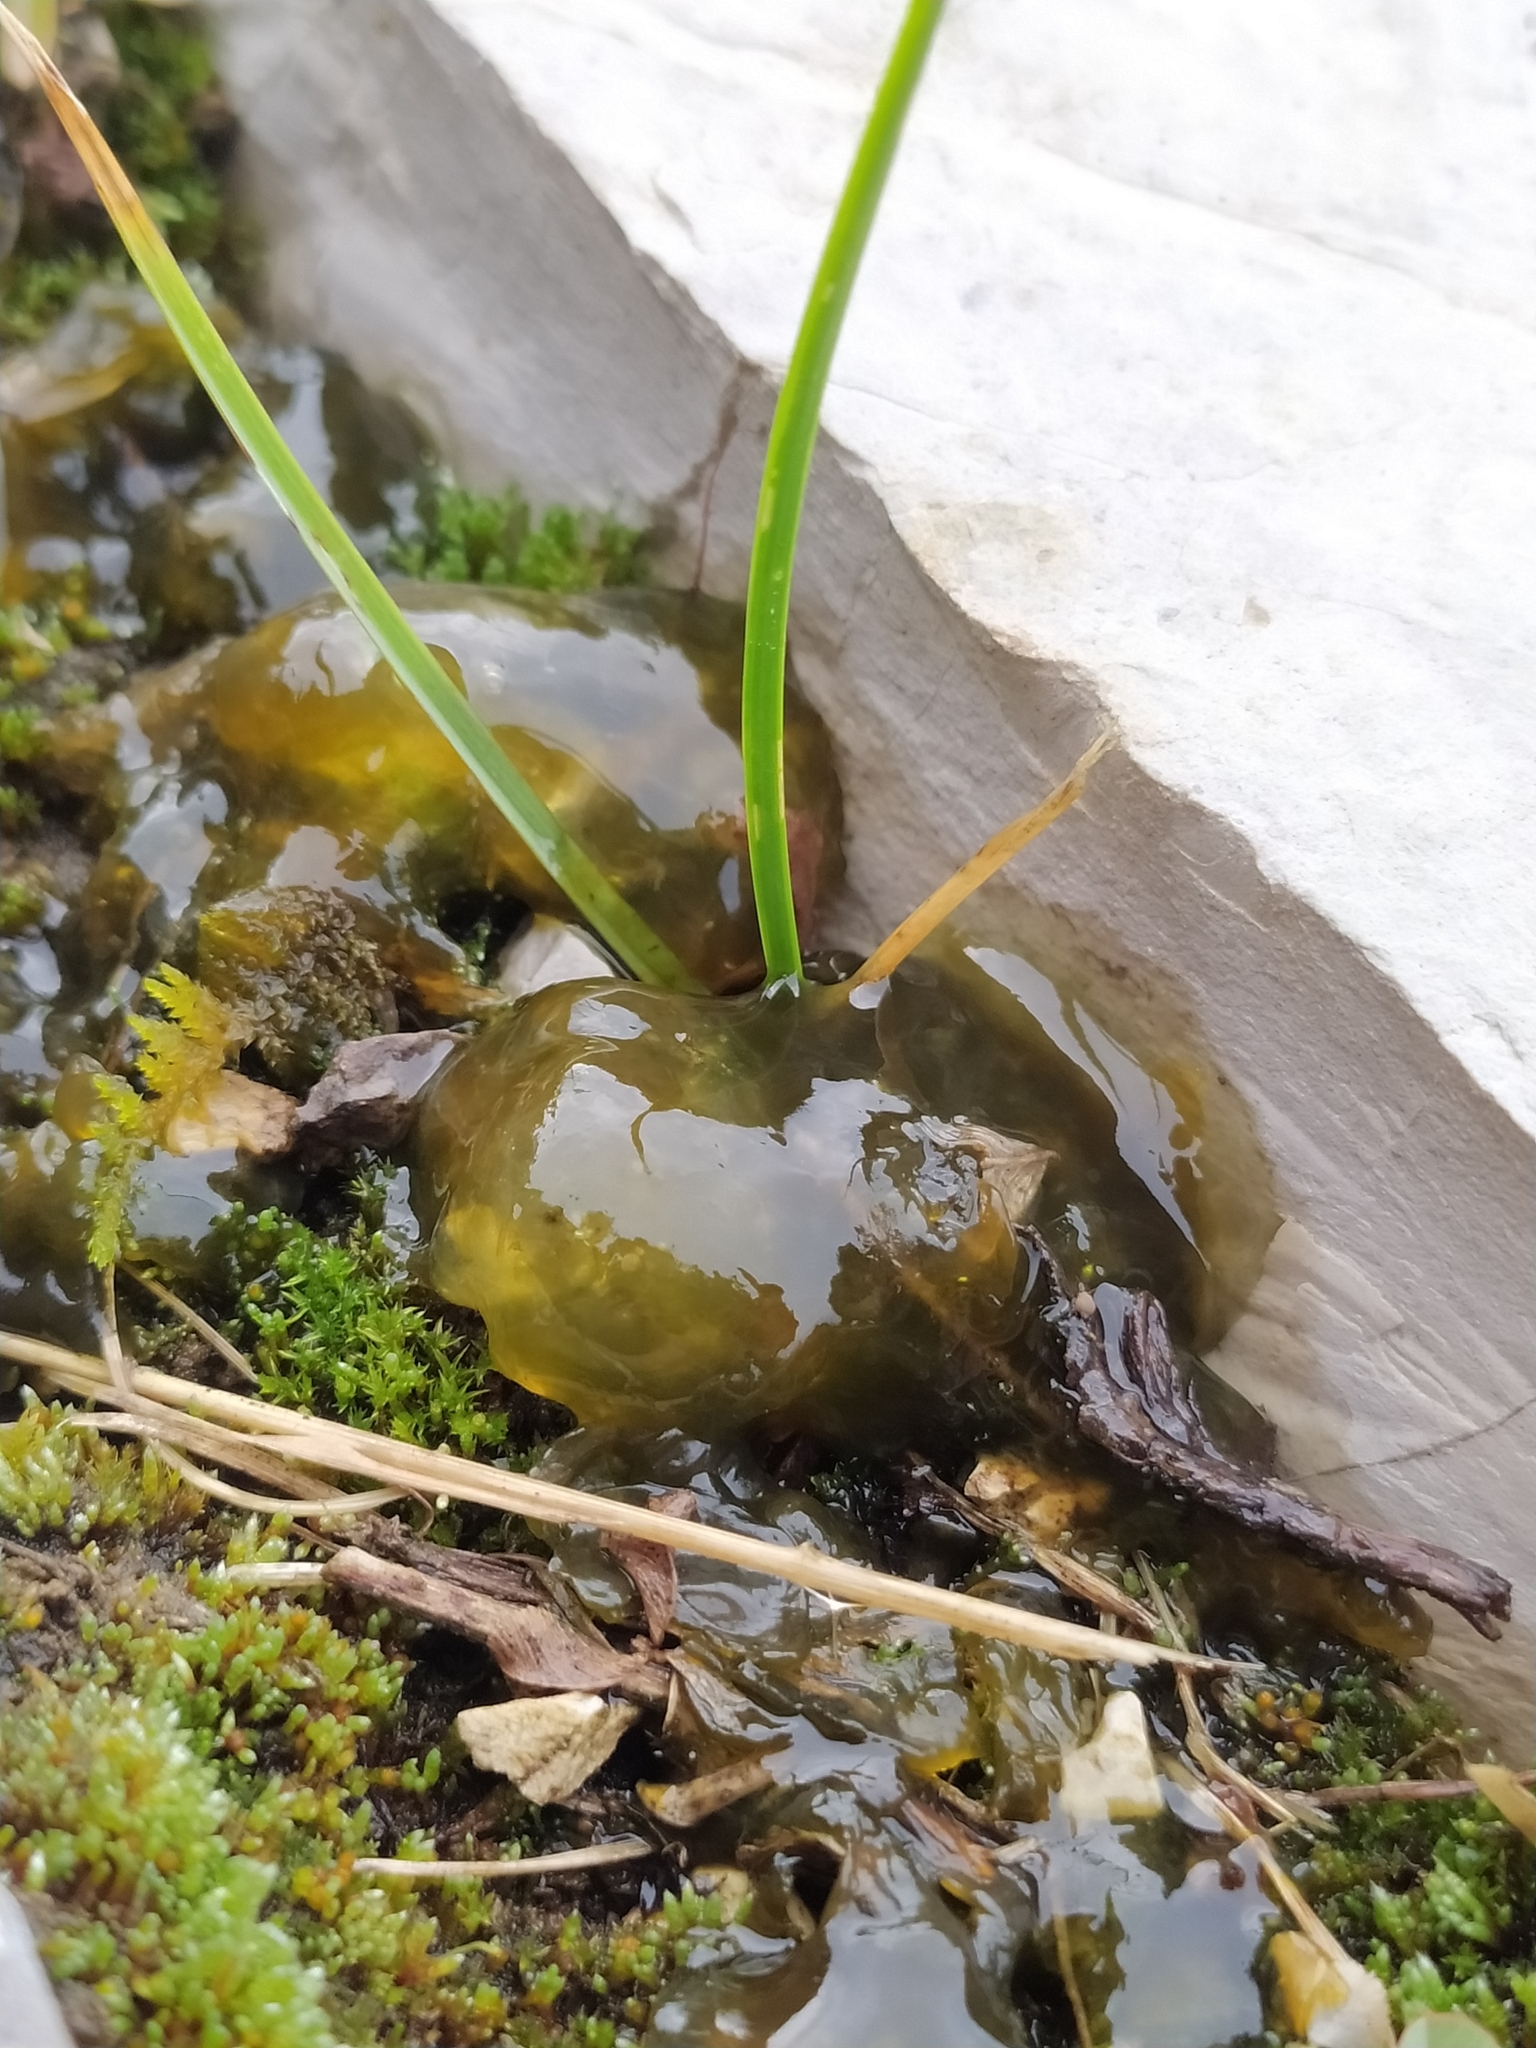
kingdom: Bacteria
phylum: Cyanobacteria
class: Cyanobacteriia
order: Cyanobacteriales
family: Nostocaceae
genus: Nostoc
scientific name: Nostoc commune
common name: Star jelly
